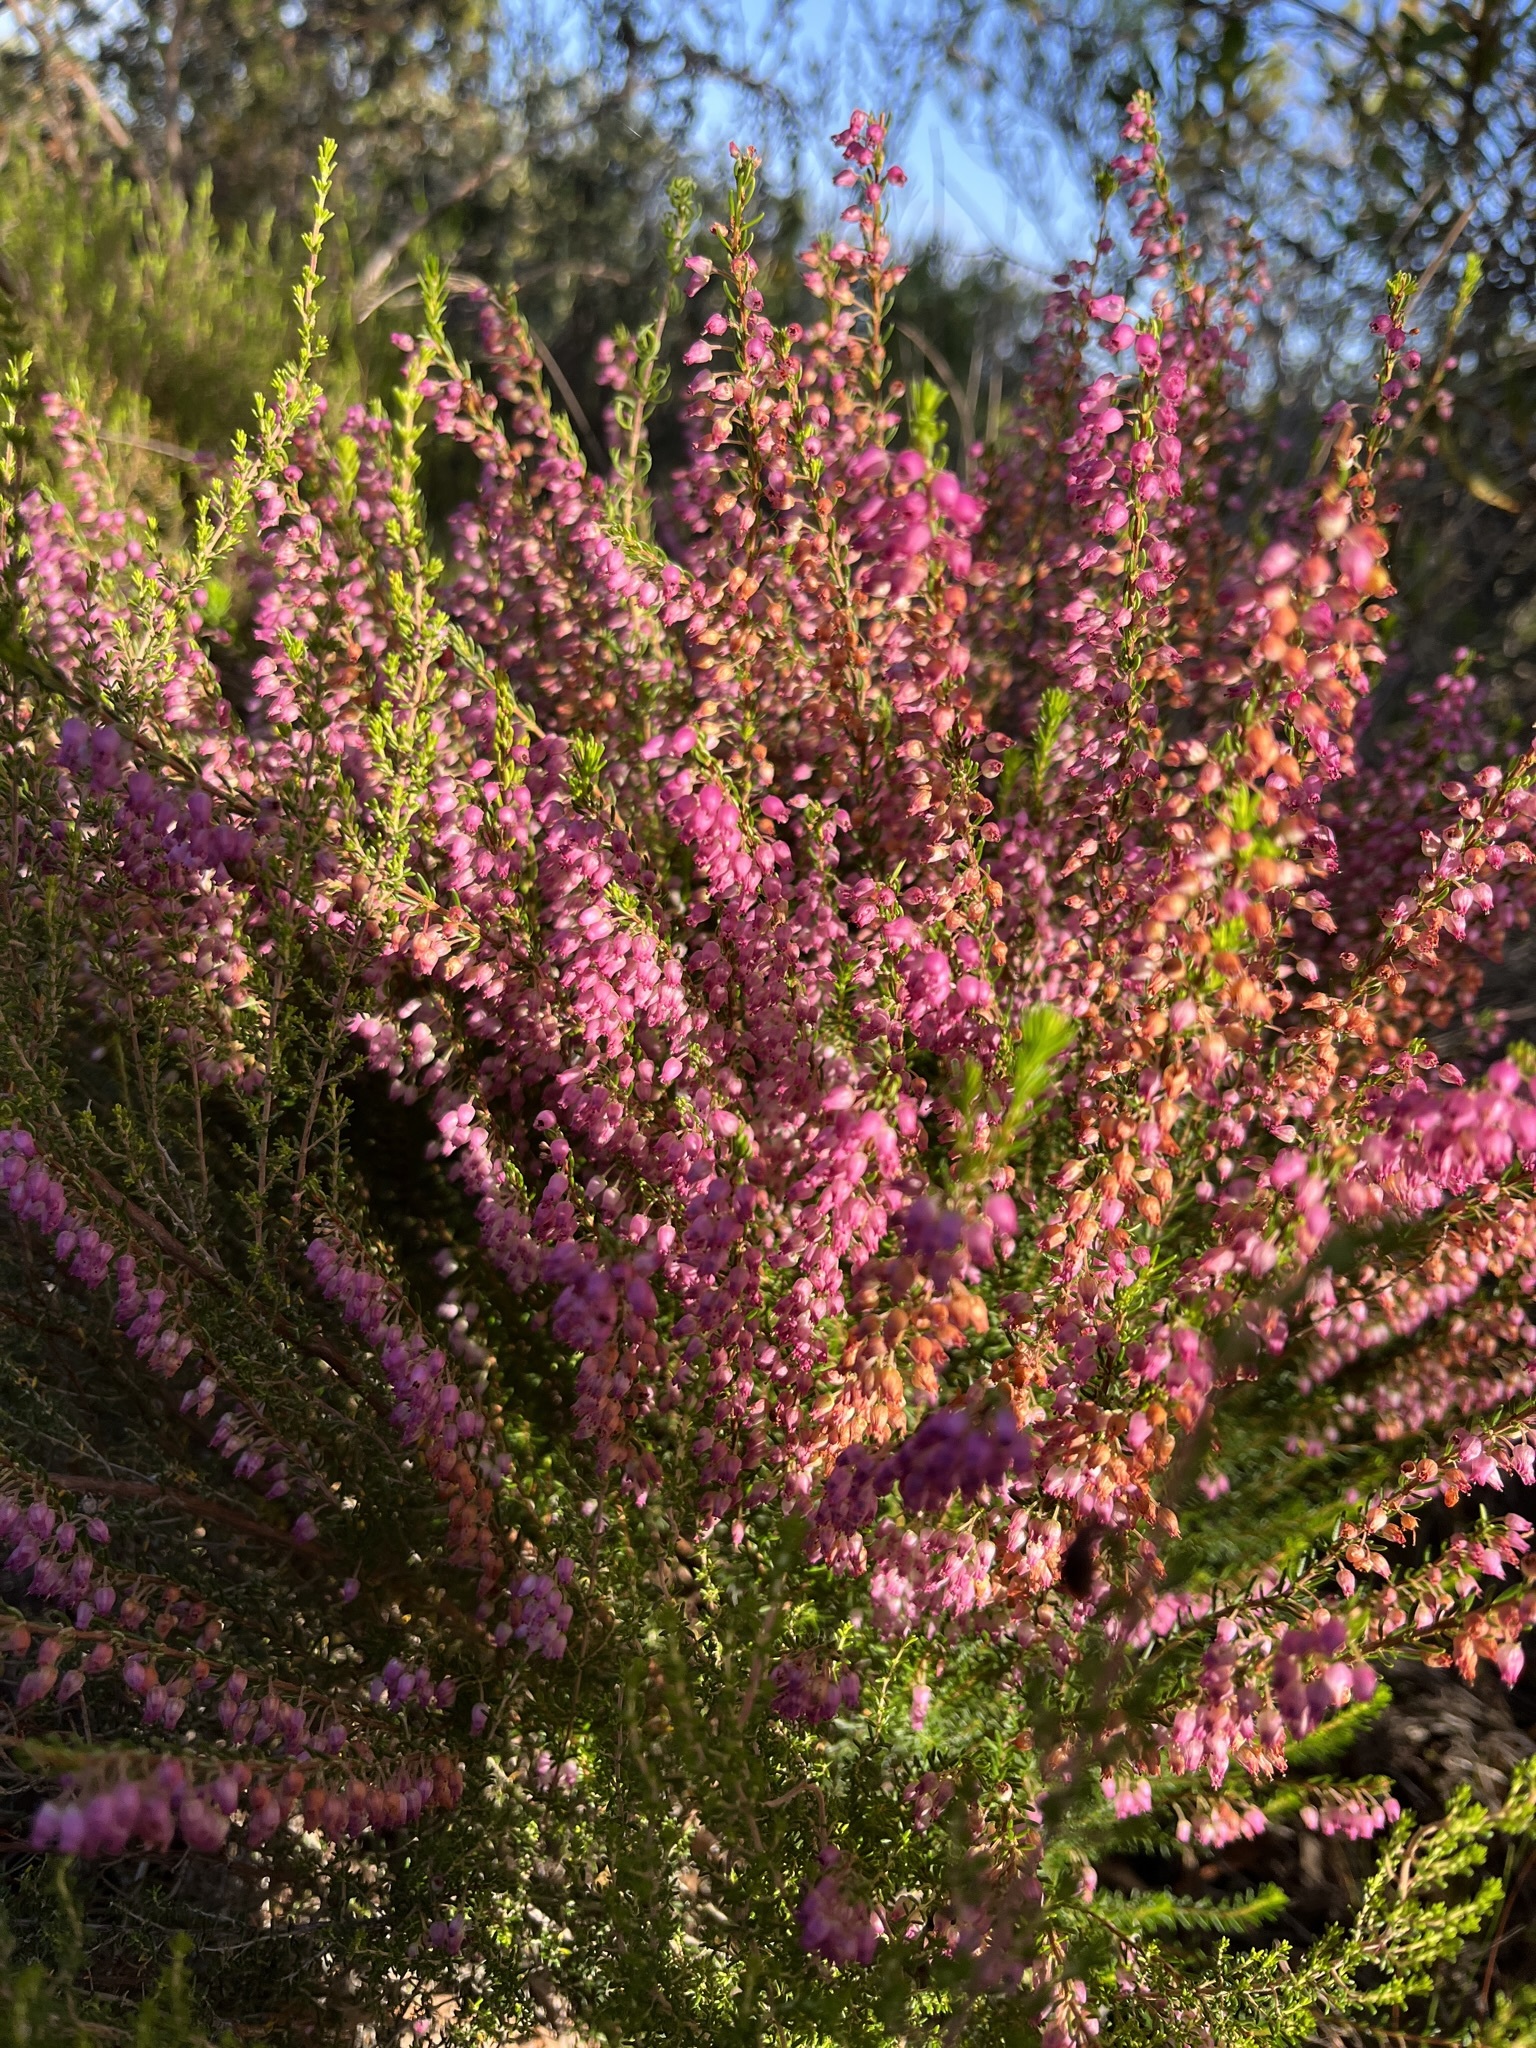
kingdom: Plantae
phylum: Tracheophyta
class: Magnoliopsida
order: Ericales
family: Ericaceae
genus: Erica
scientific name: Erica globulifera
